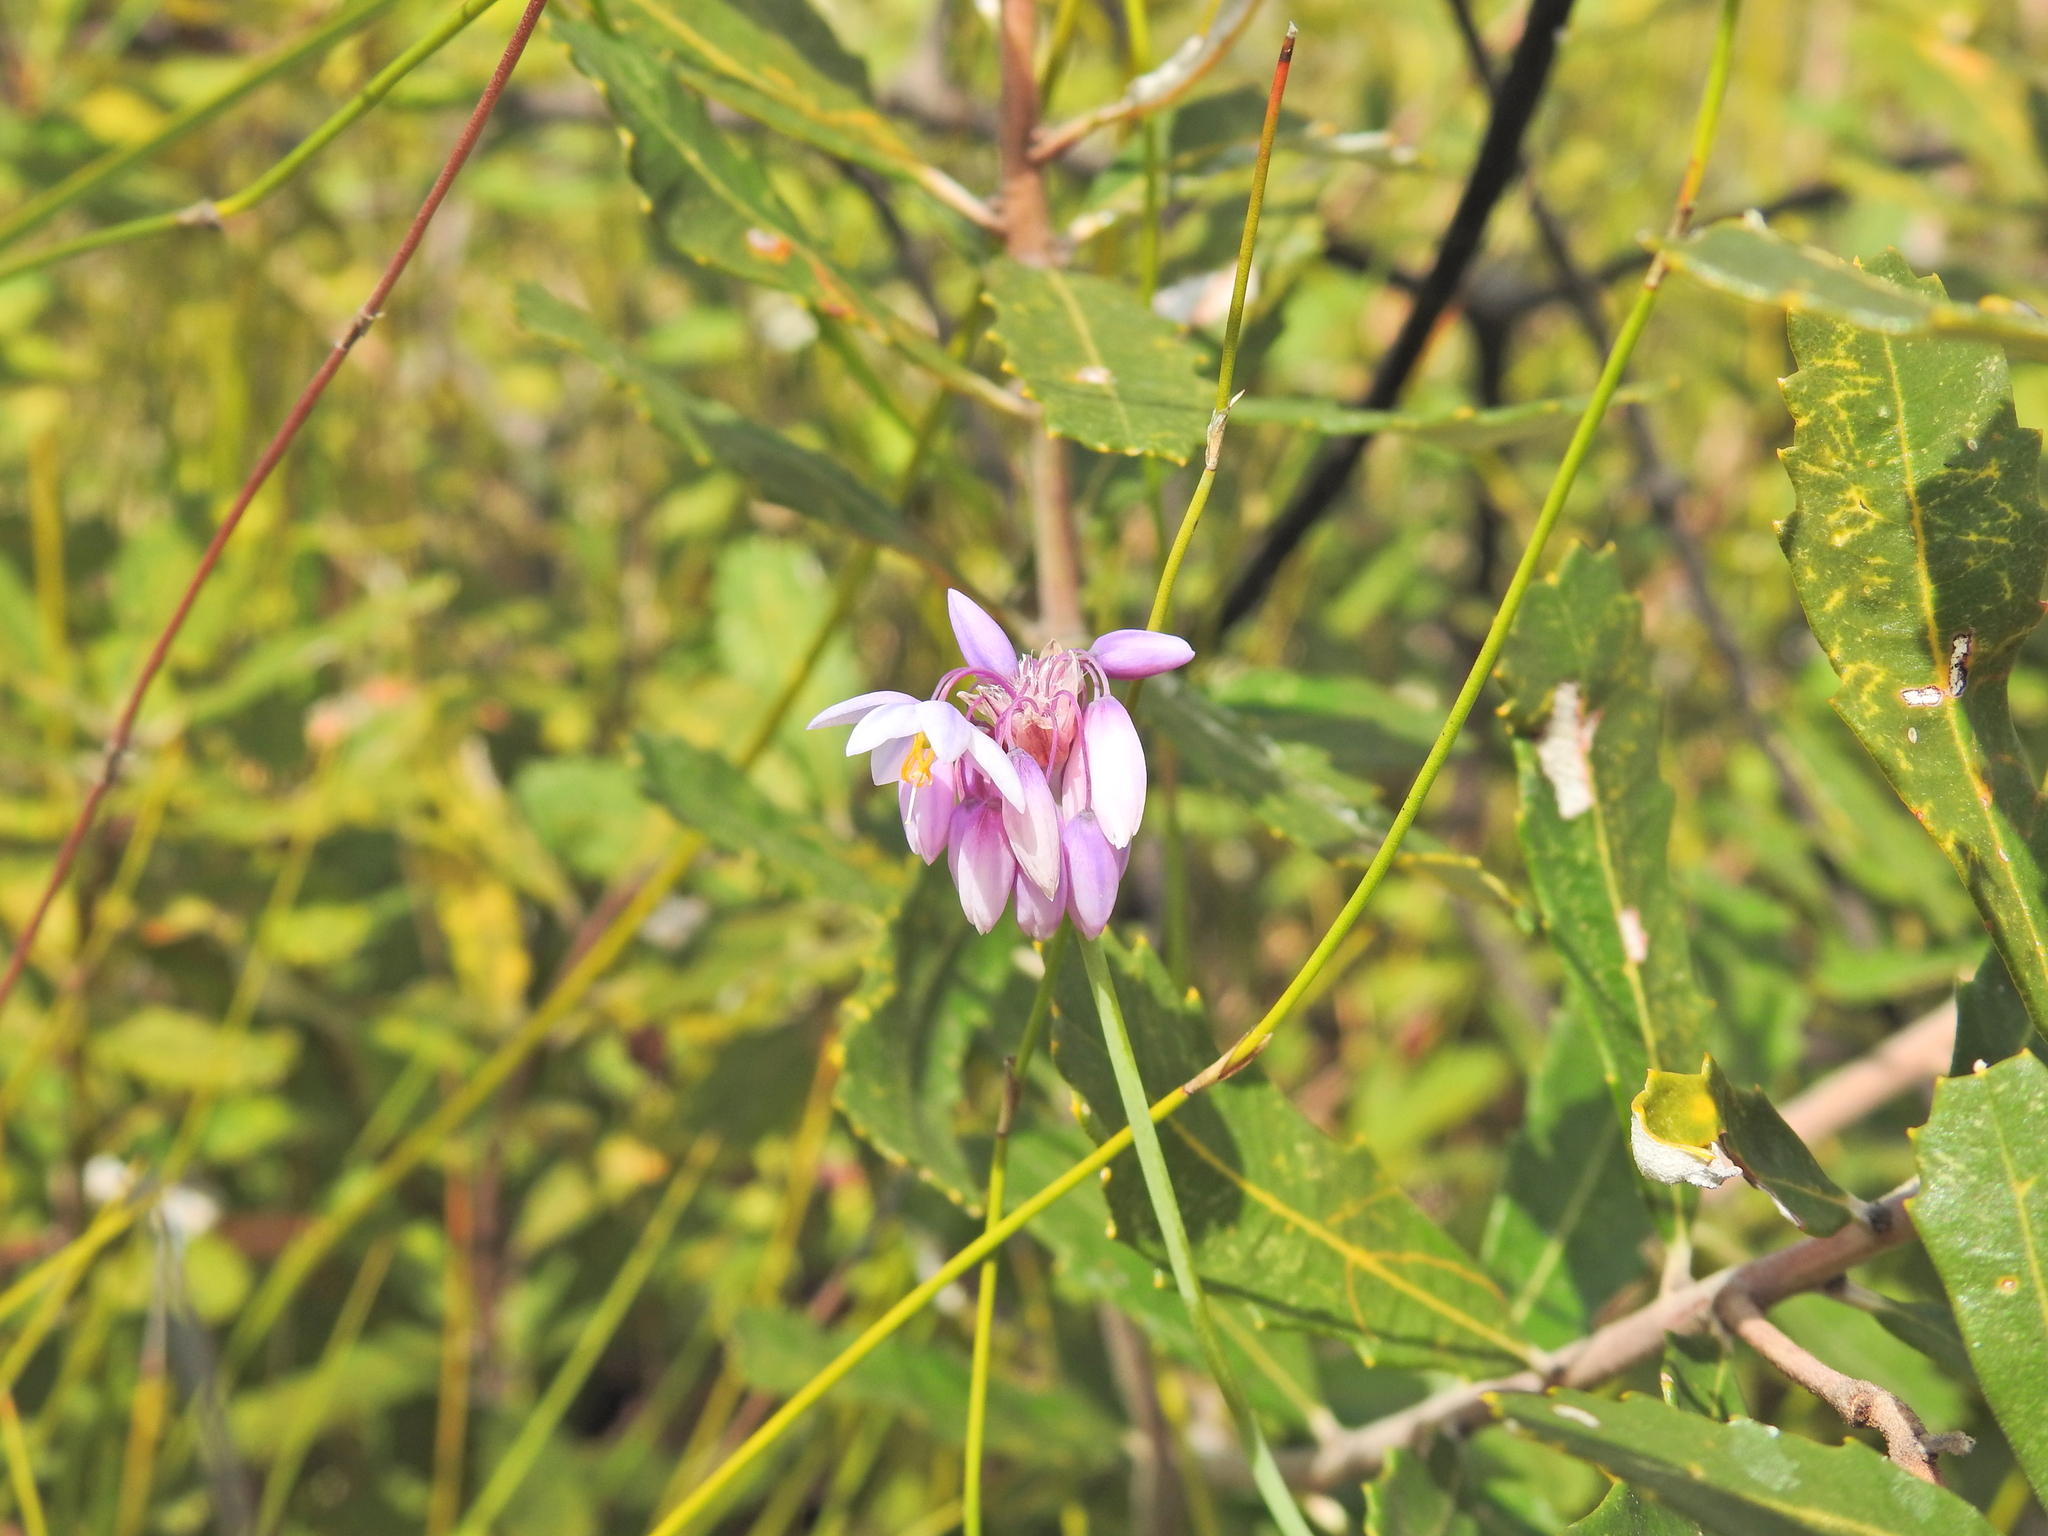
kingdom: Plantae
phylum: Tracheophyta
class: Liliopsida
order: Asparagales
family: Asparagaceae
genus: Sowerbaea
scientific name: Sowerbaea juncea
